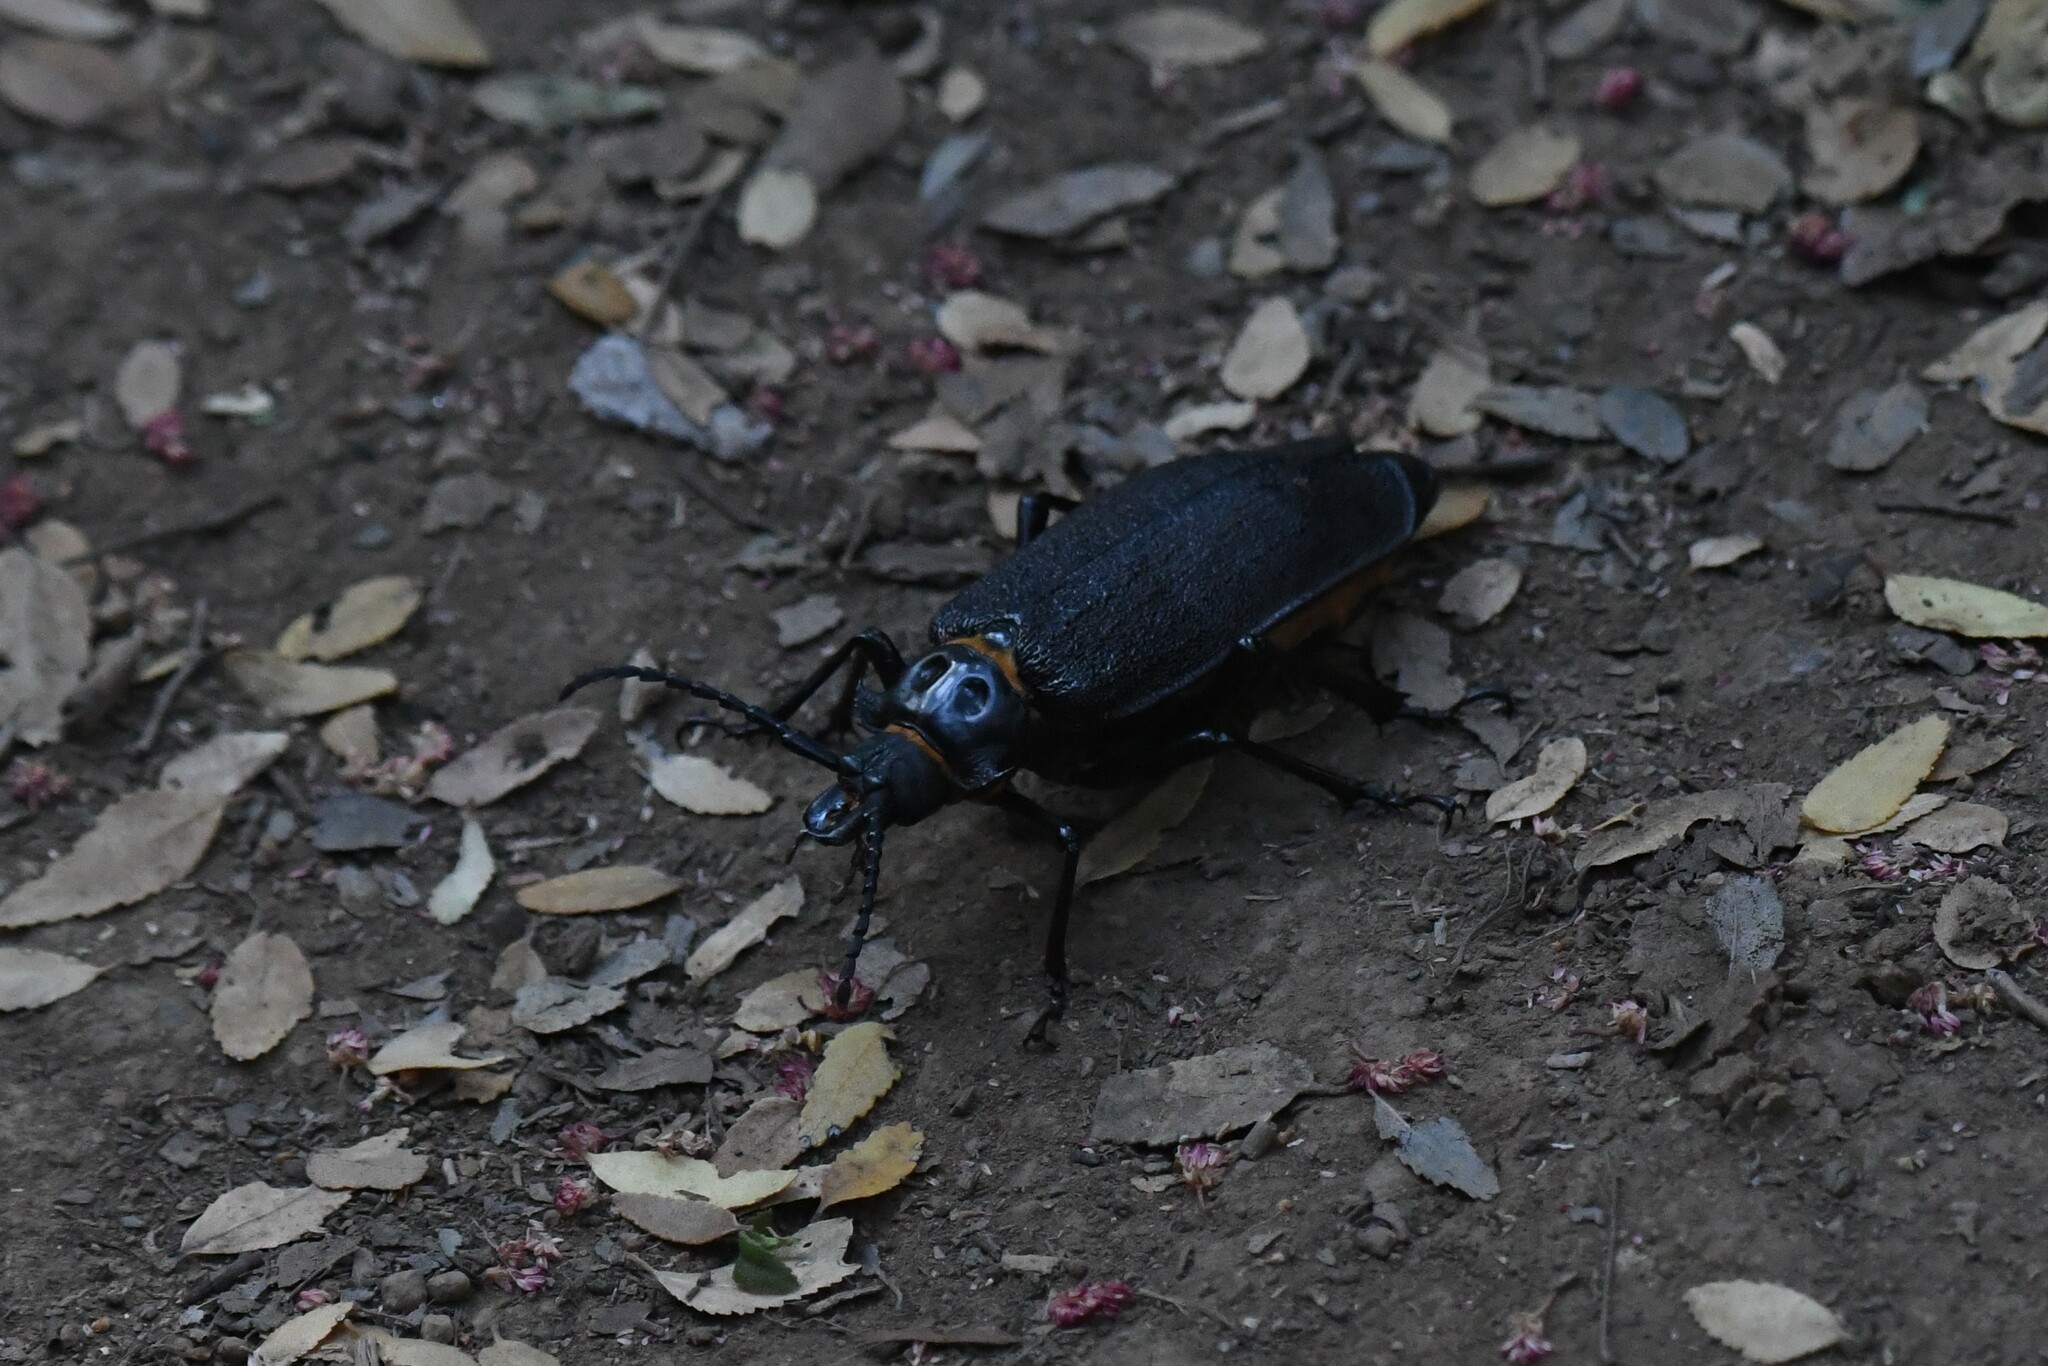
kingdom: Animalia
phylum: Arthropoda
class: Insecta
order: Coleoptera
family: Cerambycidae
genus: Acanthinodera
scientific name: Acanthinodera cumingii
